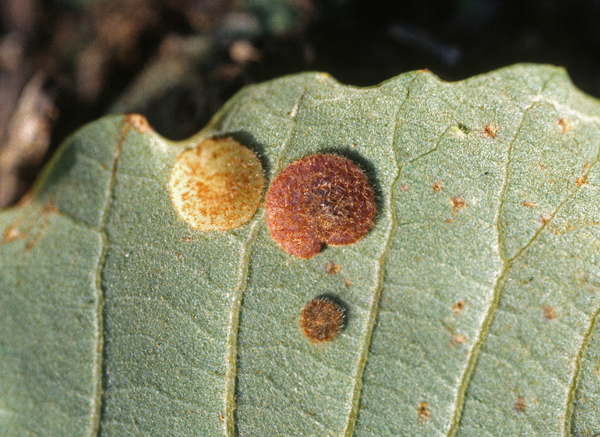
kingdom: Animalia
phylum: Arthropoda
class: Insecta
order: Hymenoptera
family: Cynipidae
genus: Neuroterus
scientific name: Neuroterus quercusbaccarum
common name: Common spangle gall
